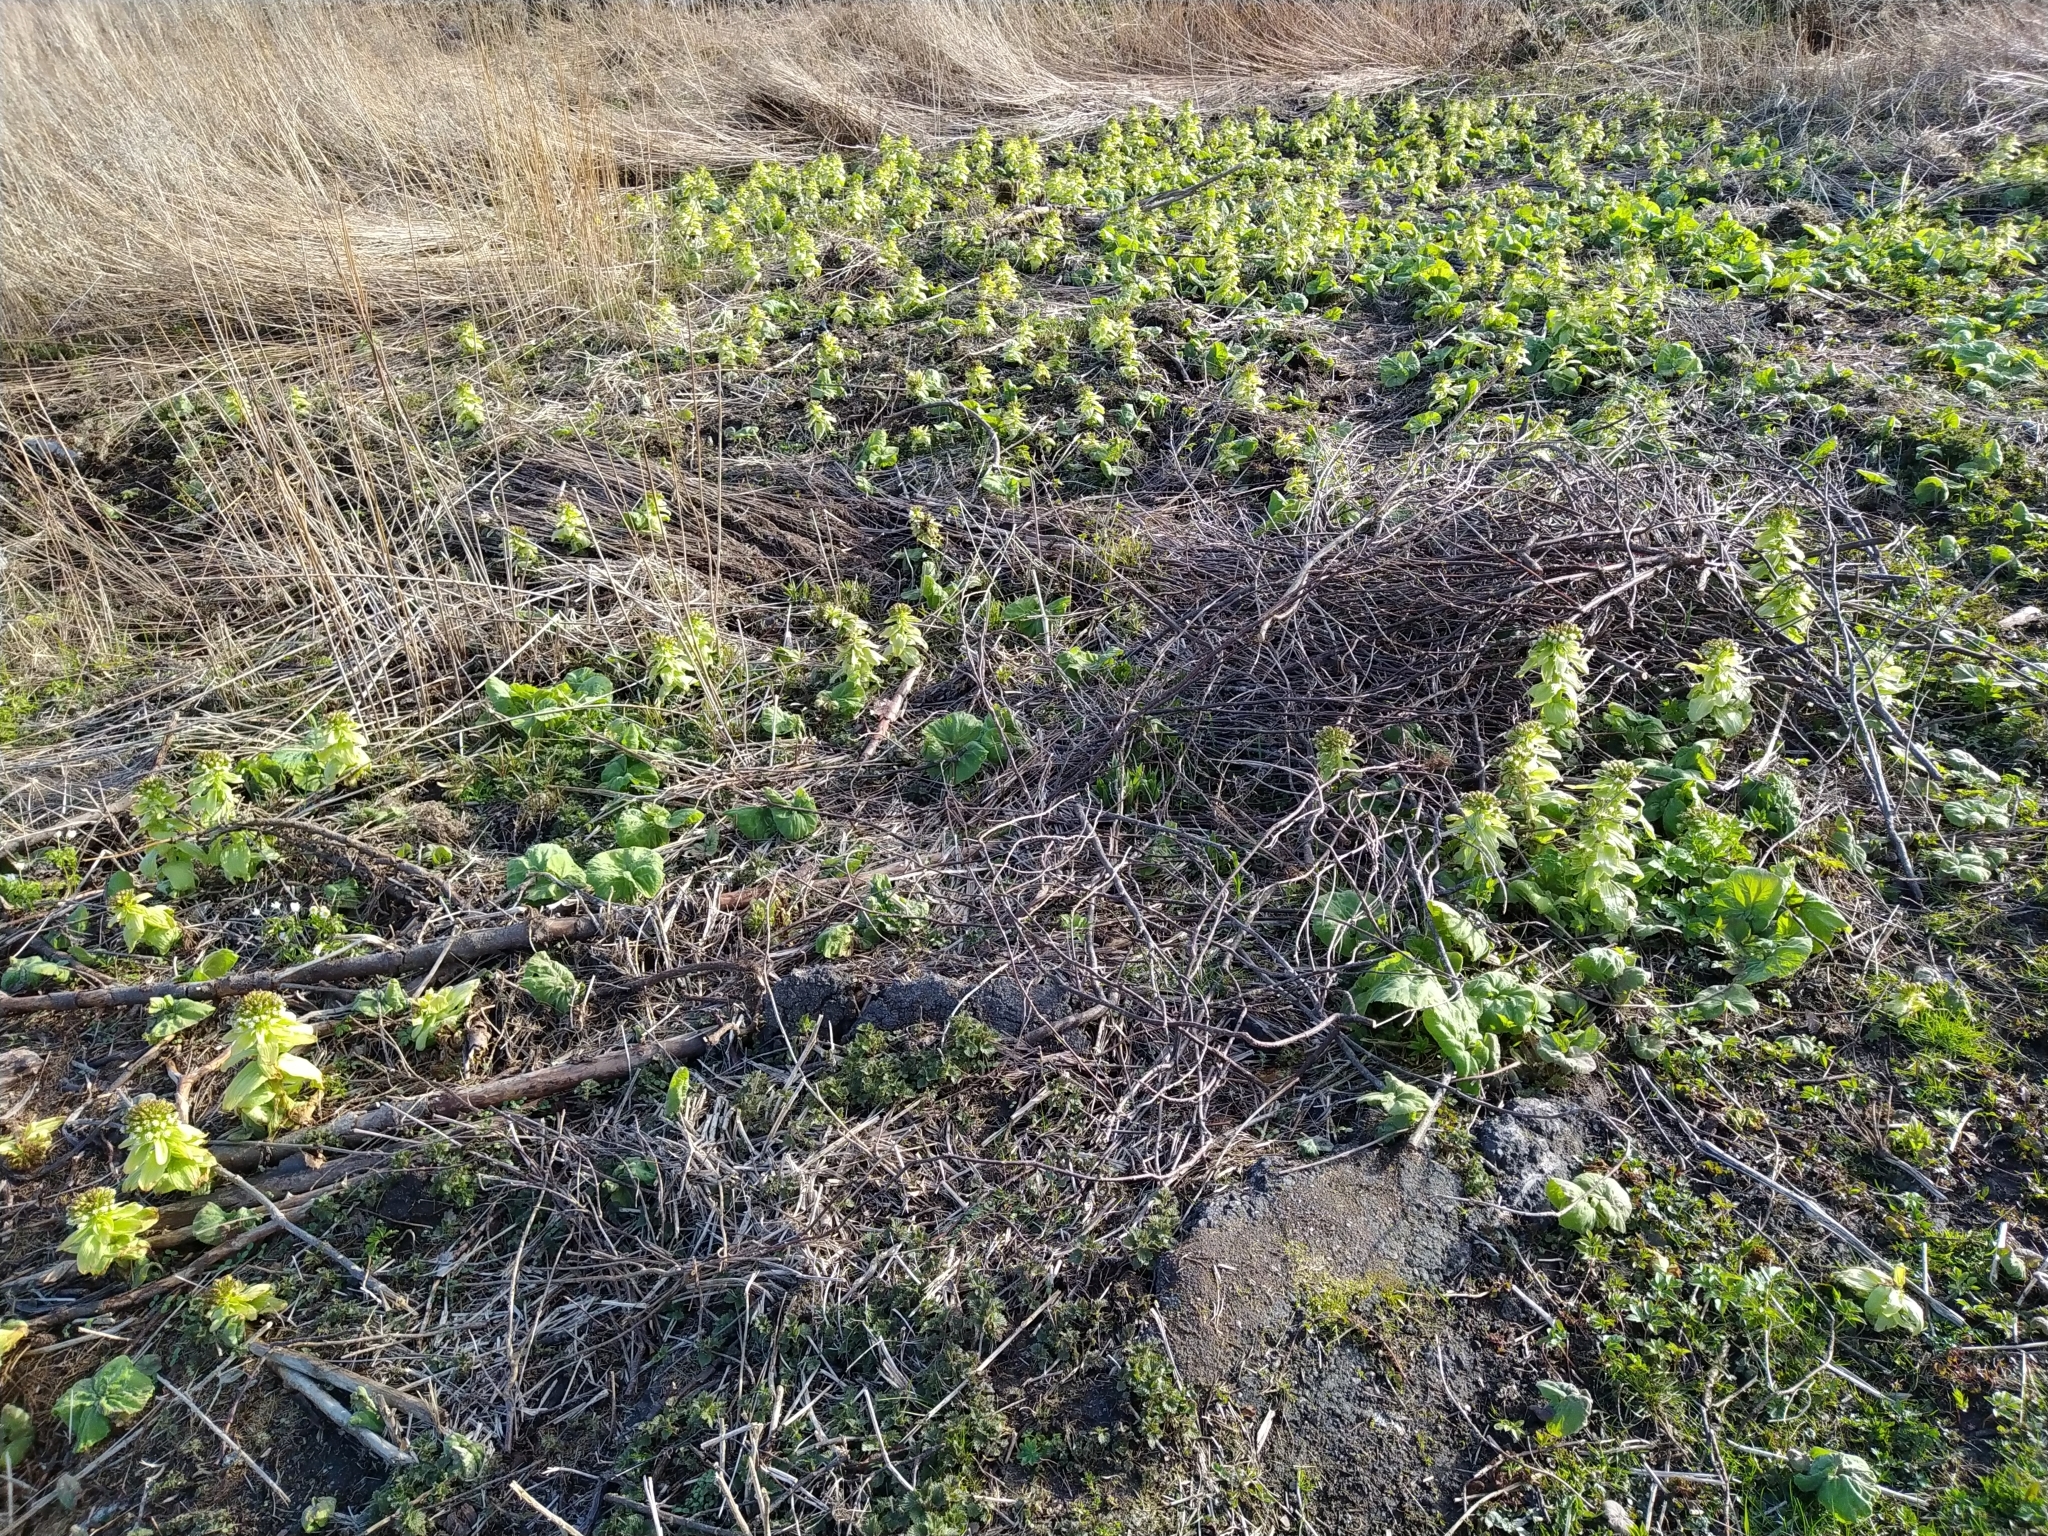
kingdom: Plantae
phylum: Tracheophyta
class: Magnoliopsida
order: Asterales
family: Asteraceae
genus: Petasites
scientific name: Petasites japonicus
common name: Giant butterbur
